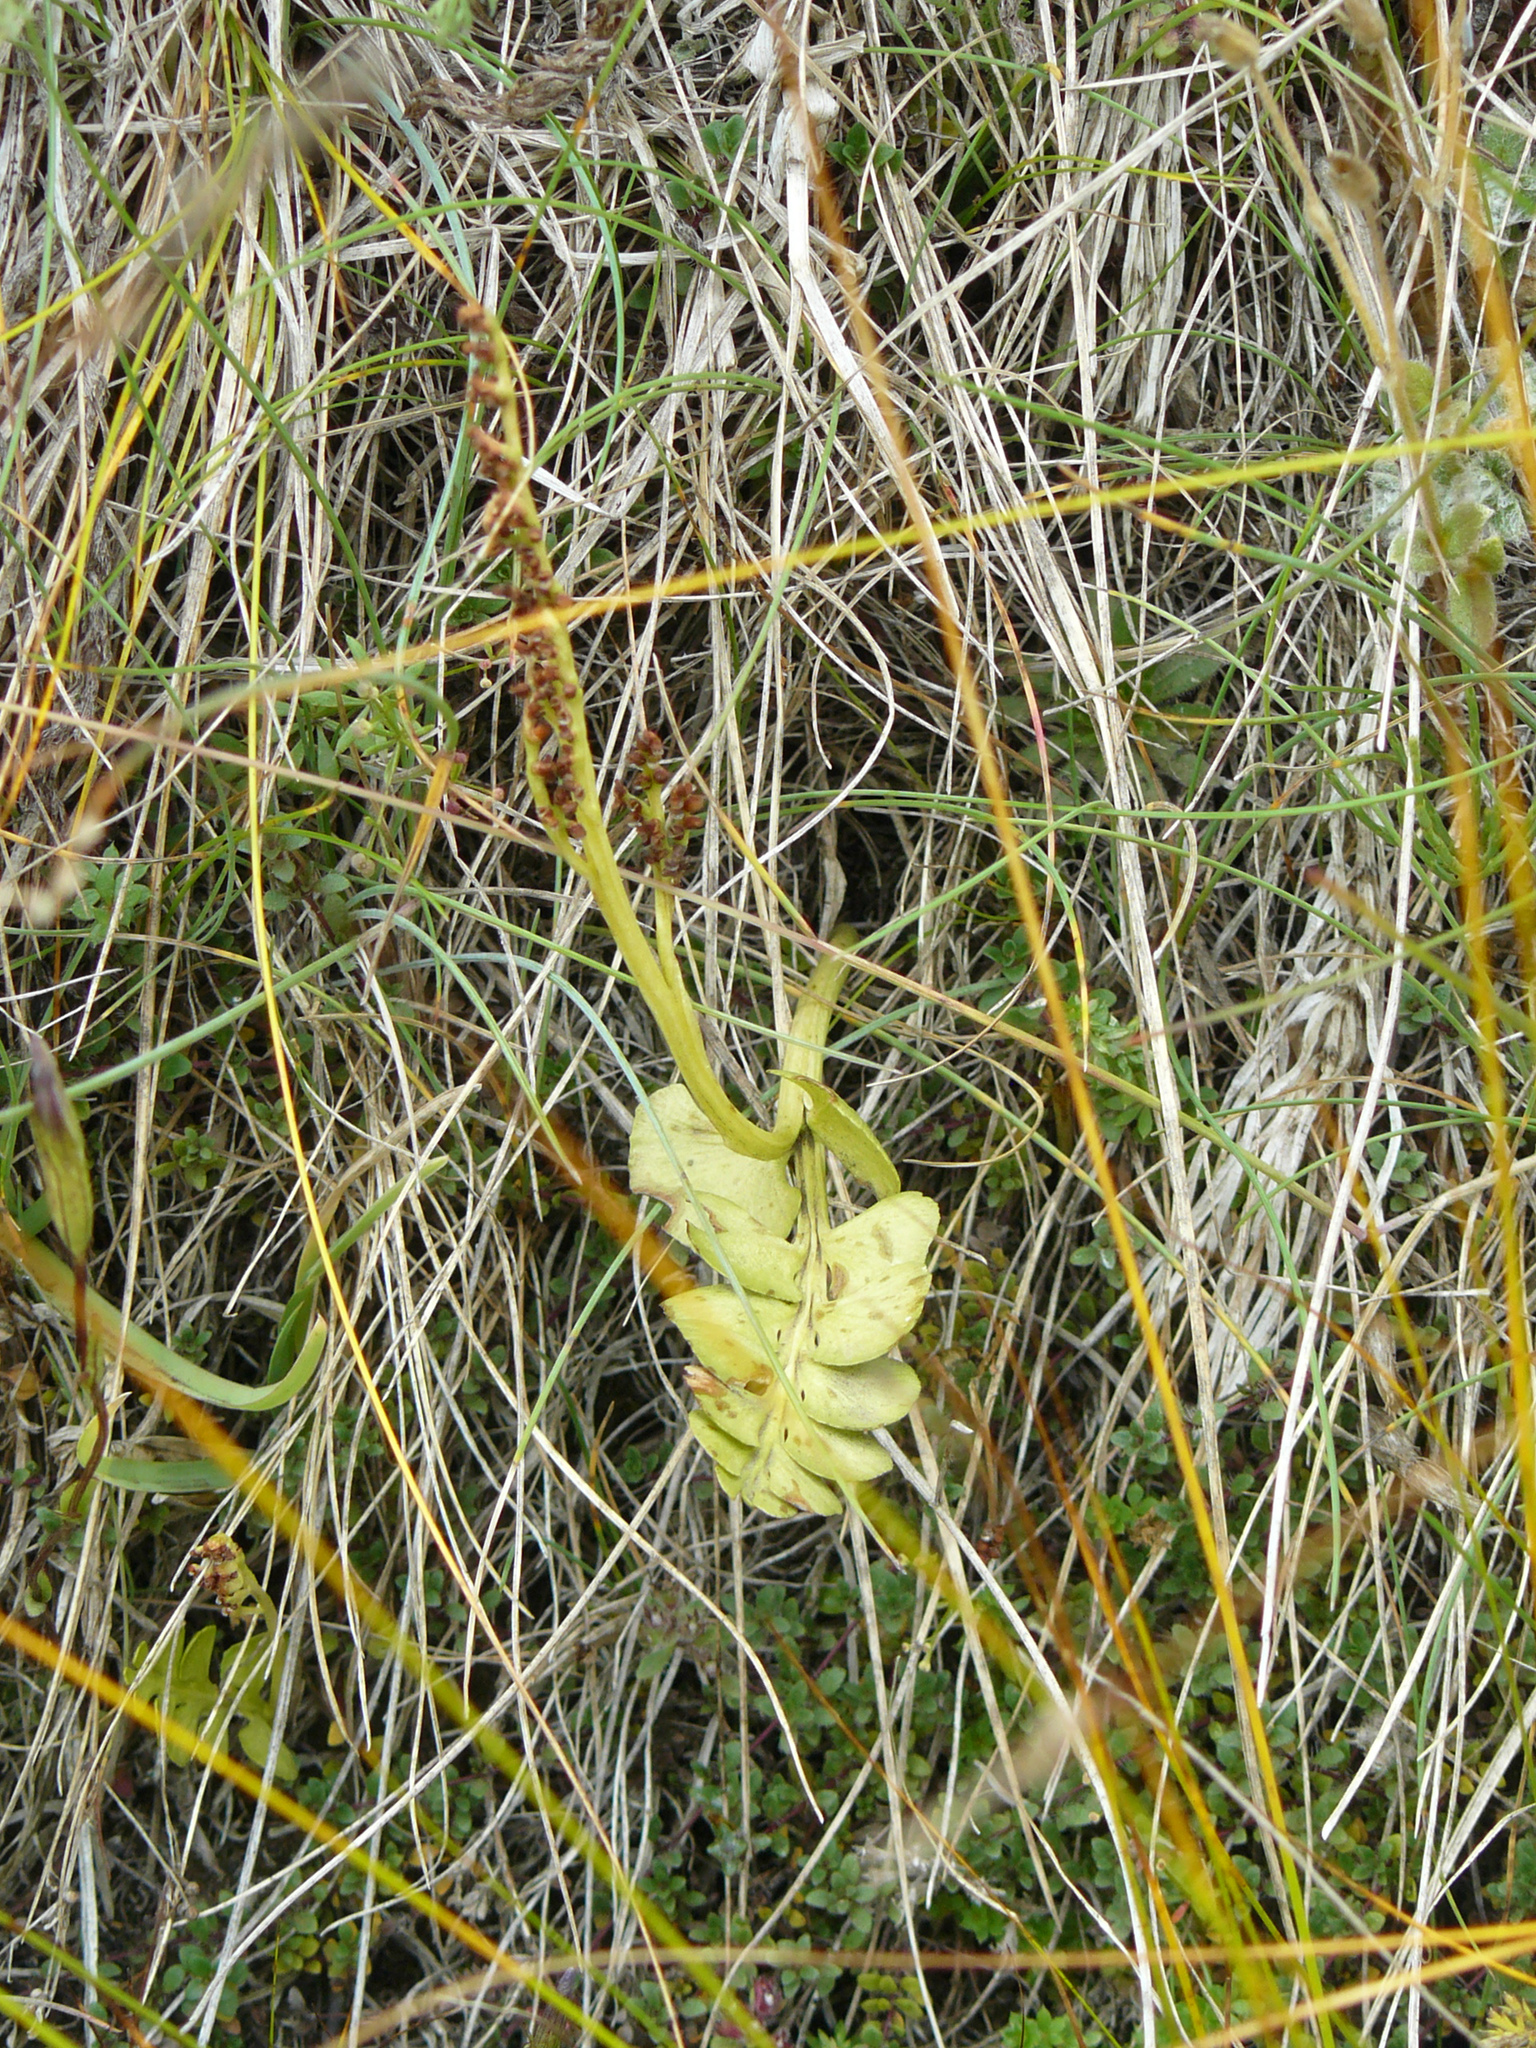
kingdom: Plantae
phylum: Tracheophyta
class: Polypodiopsida
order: Ophioglossales
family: Ophioglossaceae
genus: Botrychium
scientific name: Botrychium lunaria
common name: Moonwort
